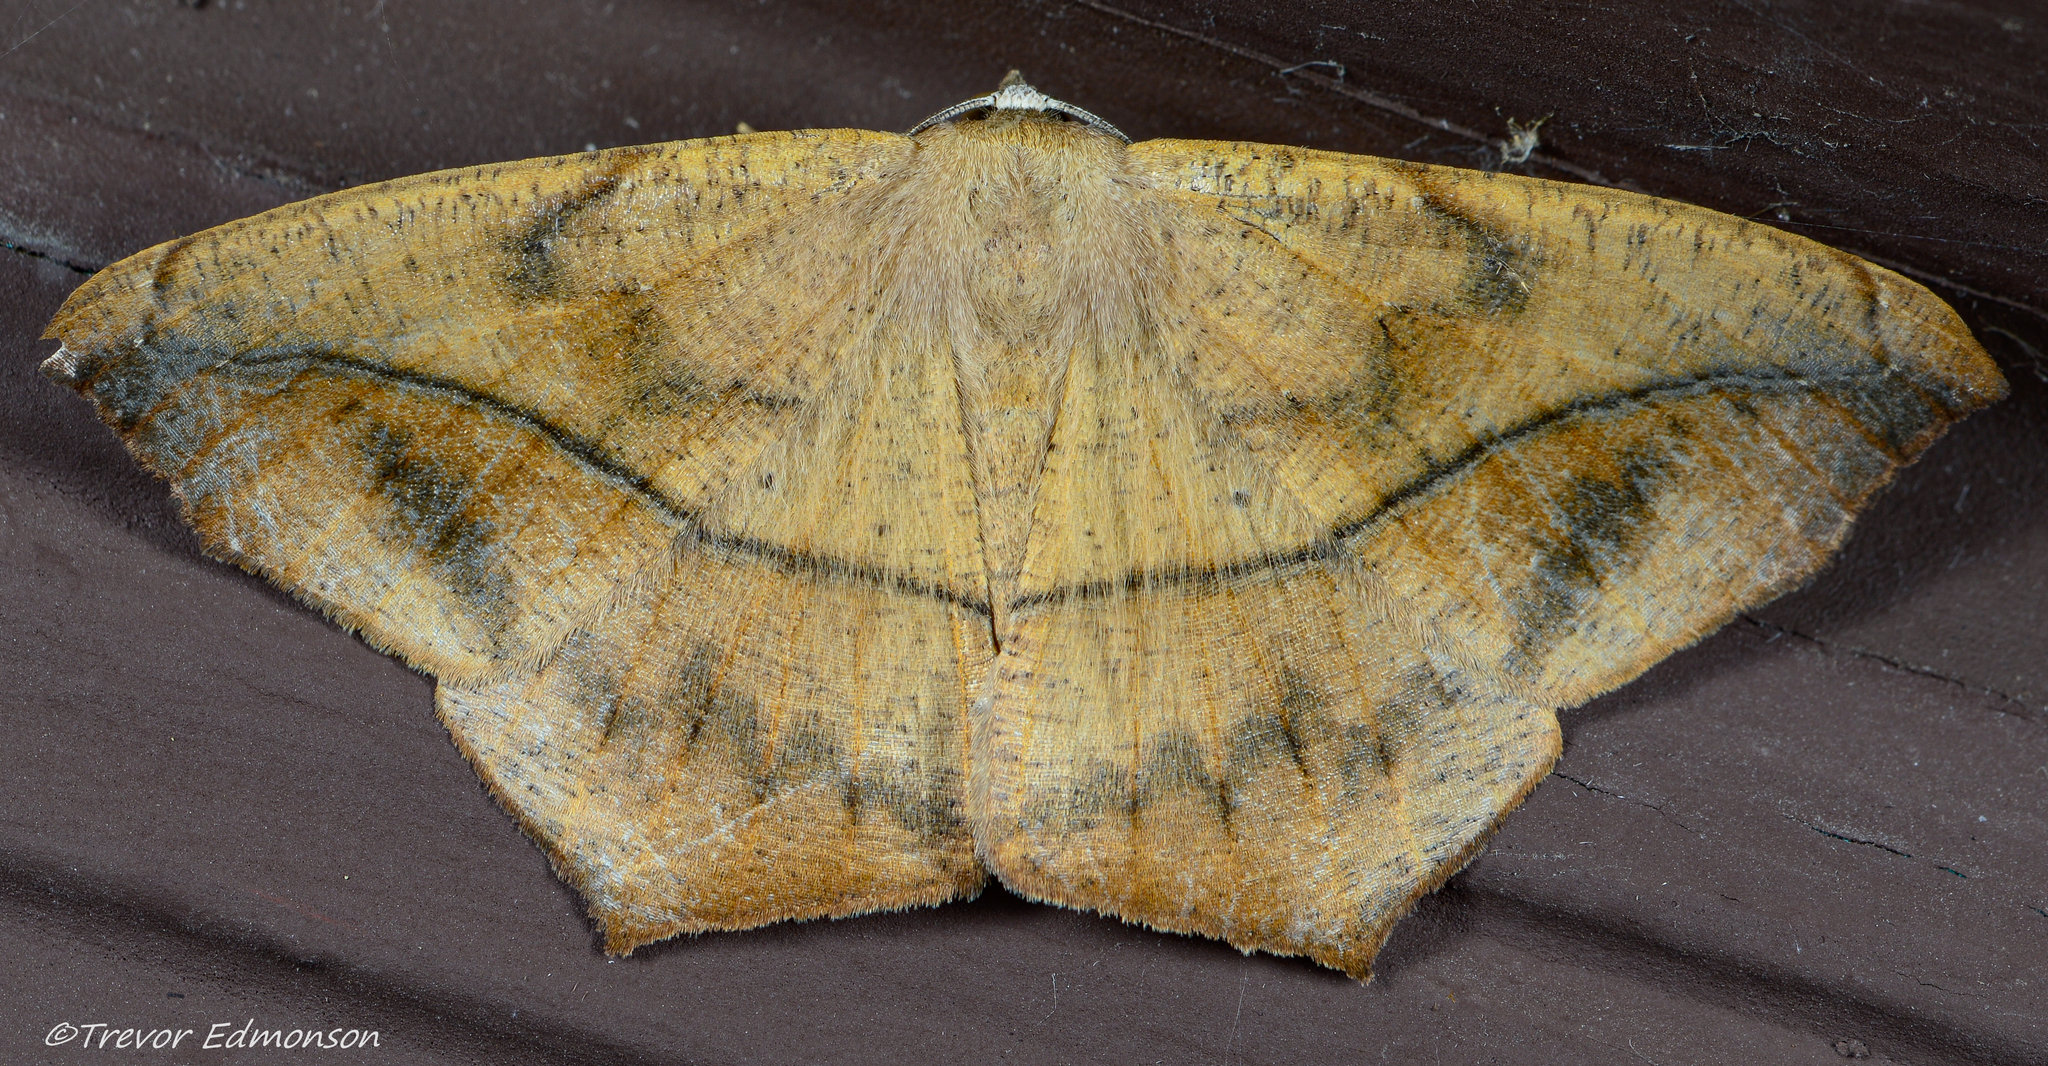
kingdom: Animalia
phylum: Arthropoda
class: Insecta
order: Lepidoptera
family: Geometridae
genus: Prochoerodes
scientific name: Prochoerodes lineola
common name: Large maple spanworm
